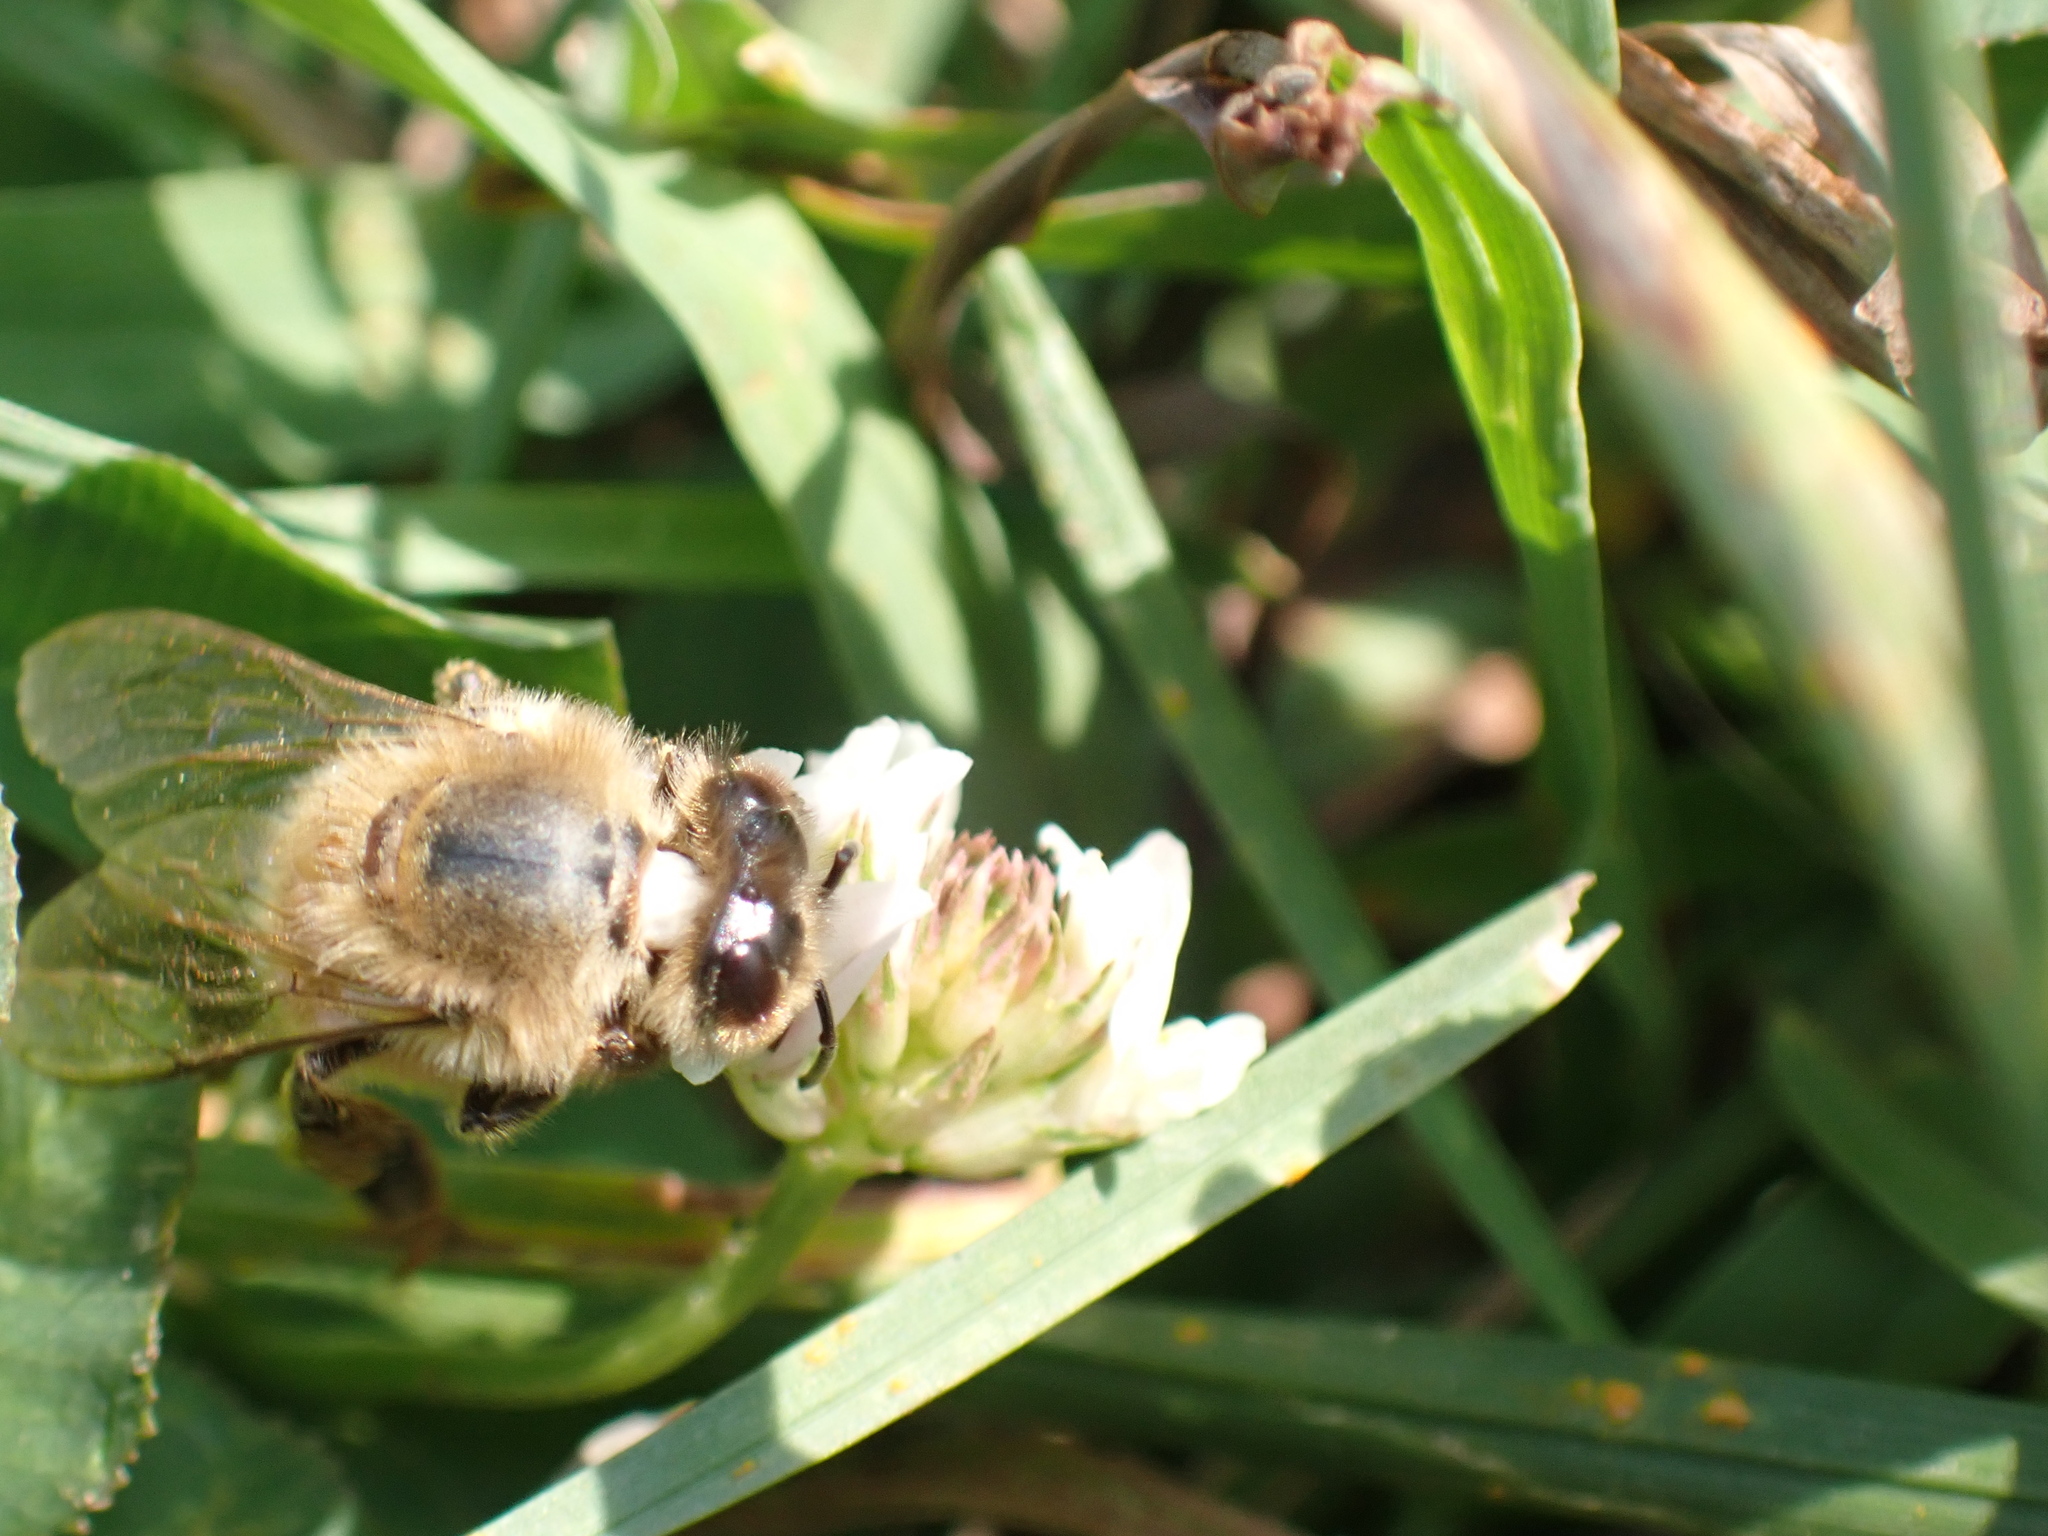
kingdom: Animalia
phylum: Arthropoda
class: Insecta
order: Hymenoptera
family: Apidae
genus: Apis
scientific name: Apis mellifera
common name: Honey bee
